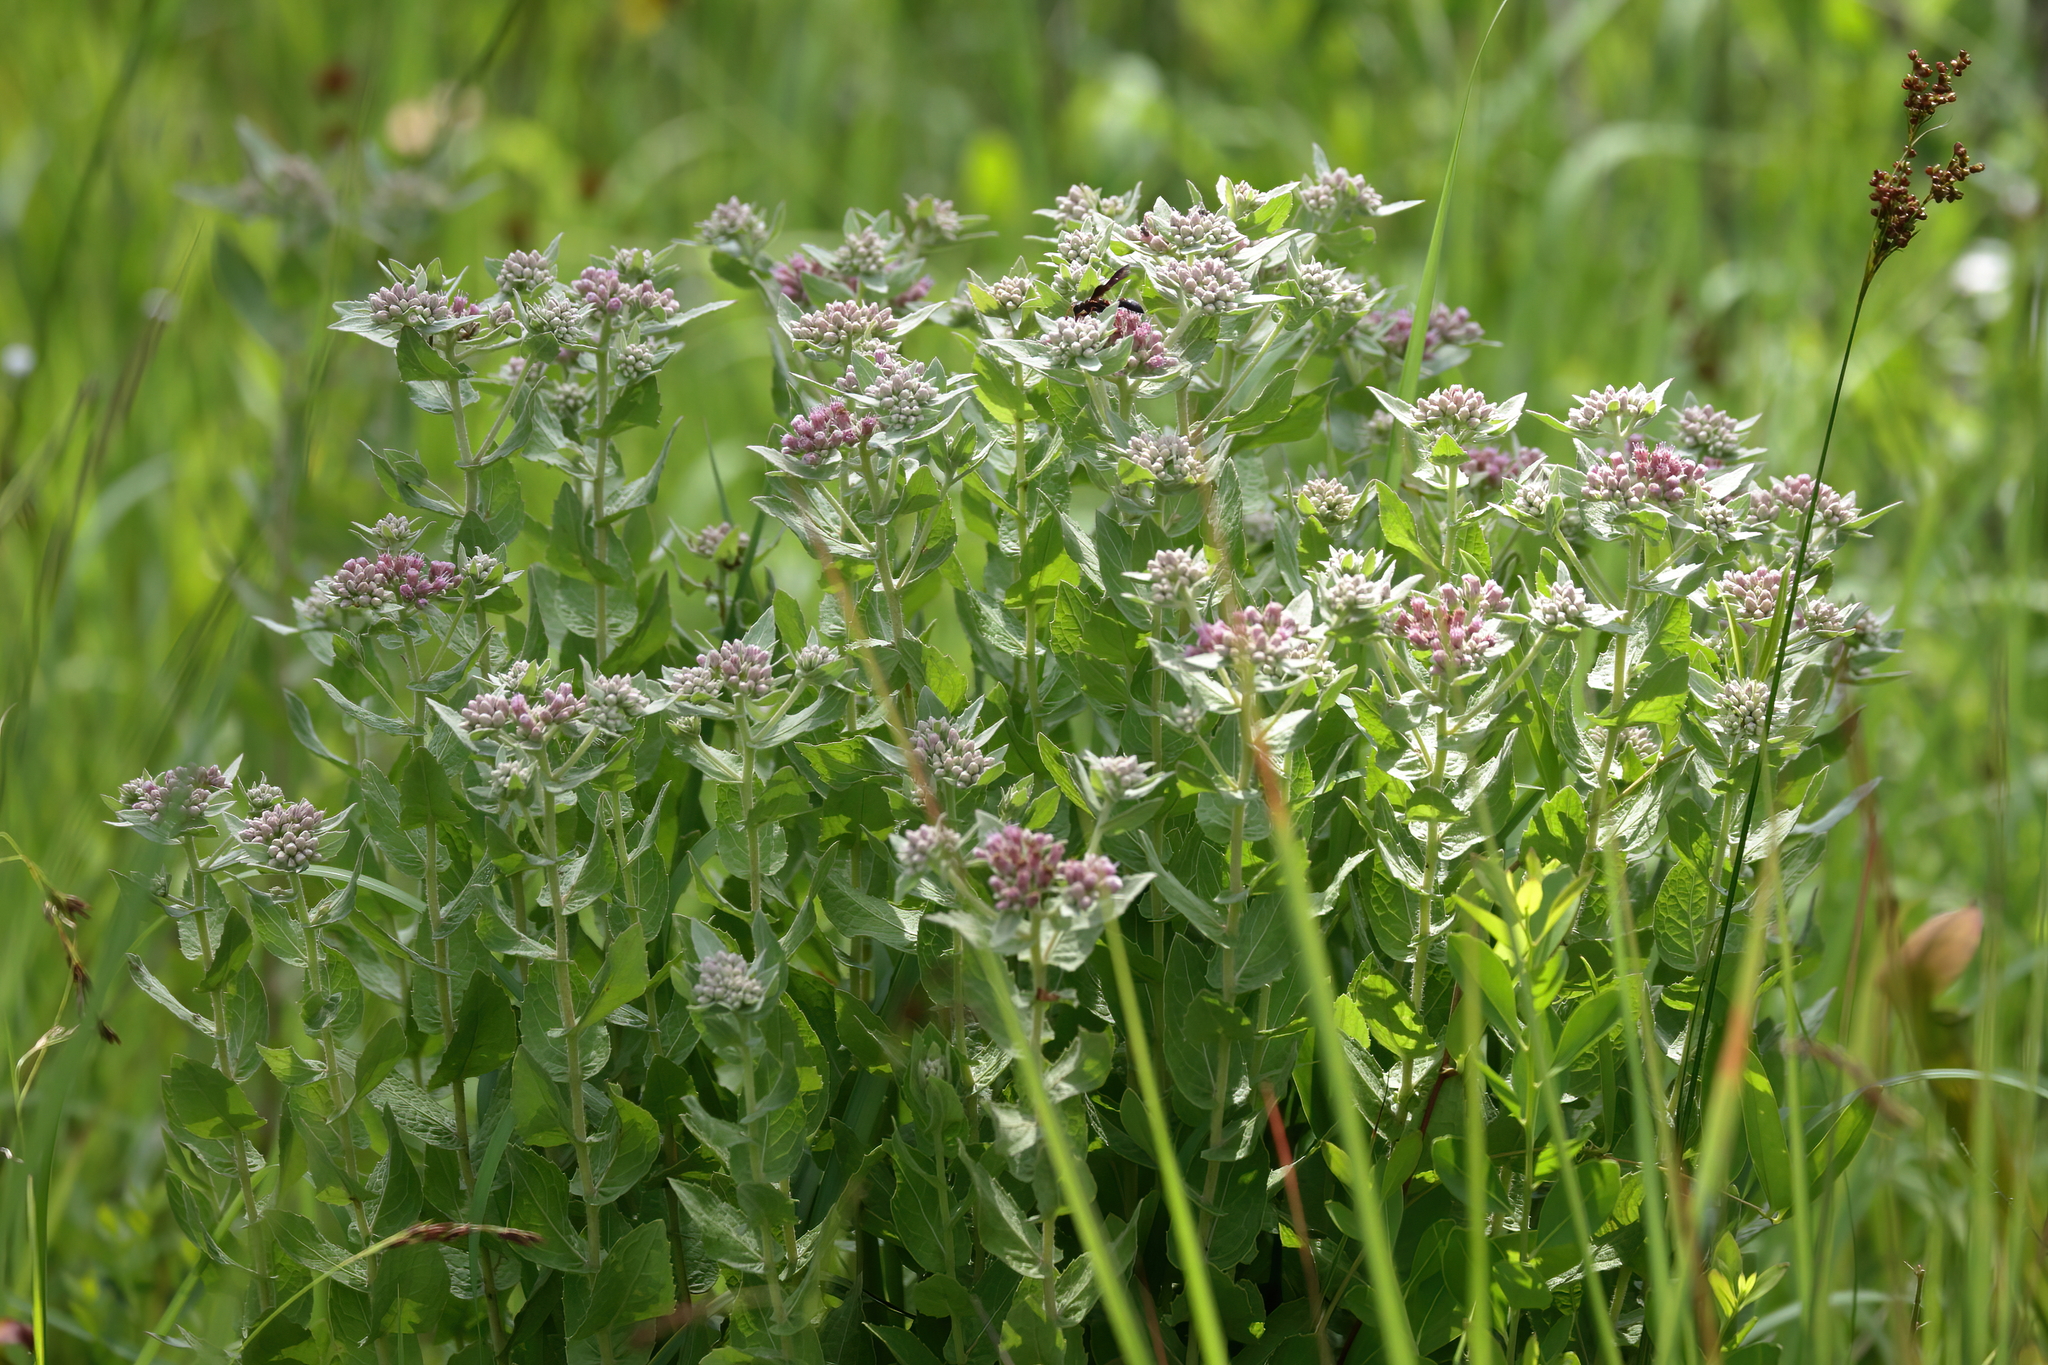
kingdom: Plantae
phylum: Tracheophyta
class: Magnoliopsida
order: Asterales
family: Asteraceae
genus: Pluchea
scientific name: Pluchea baccharis
